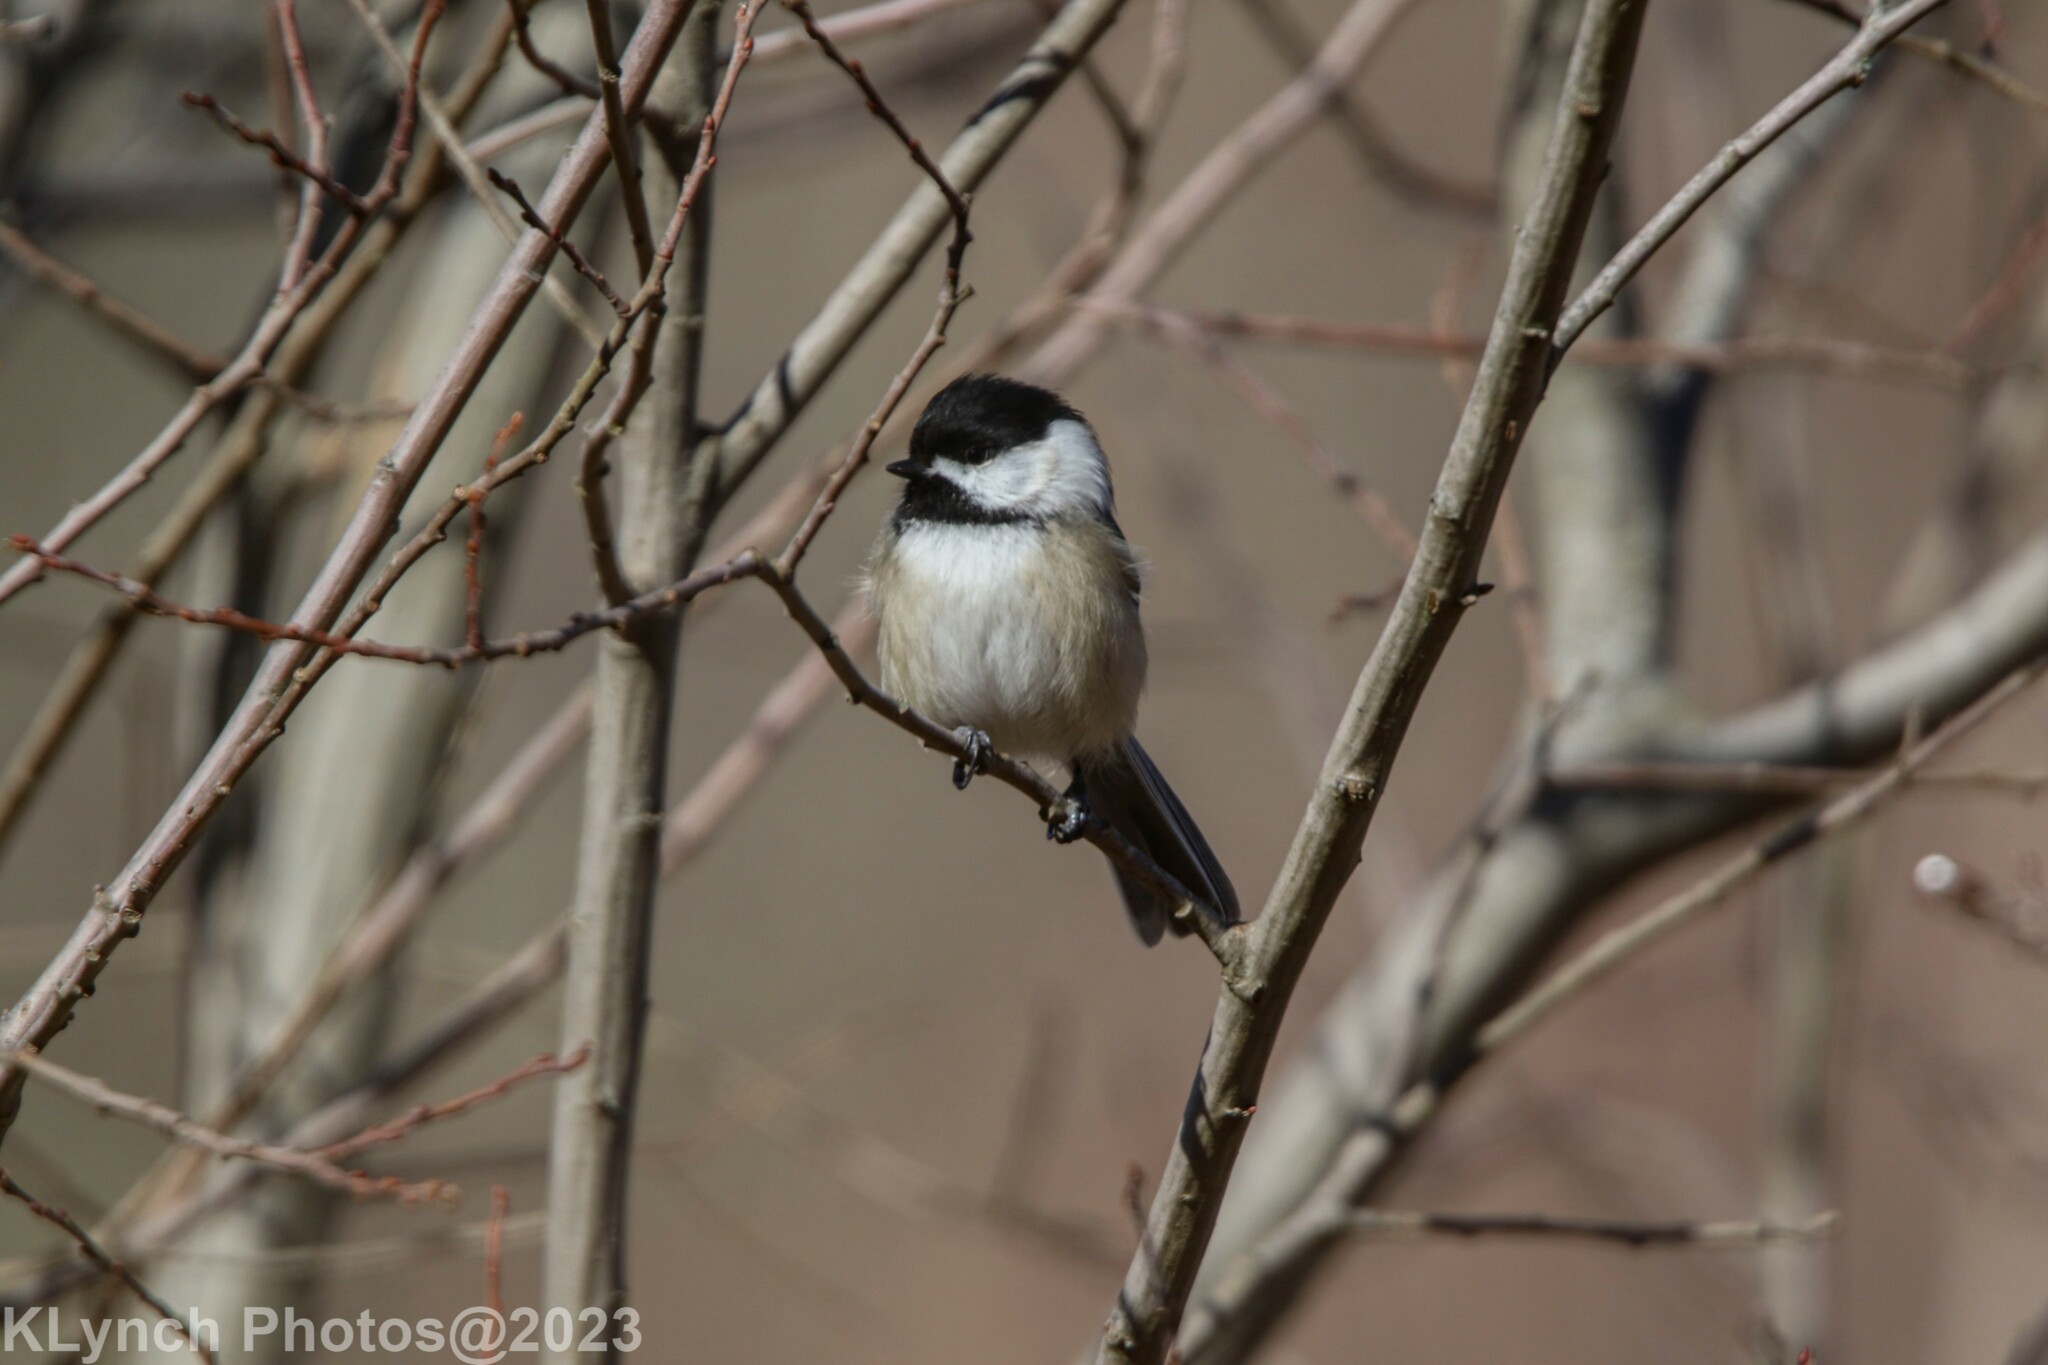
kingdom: Animalia
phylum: Chordata
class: Aves
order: Passeriformes
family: Paridae
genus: Poecile
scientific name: Poecile atricapillus
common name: Black-capped chickadee
